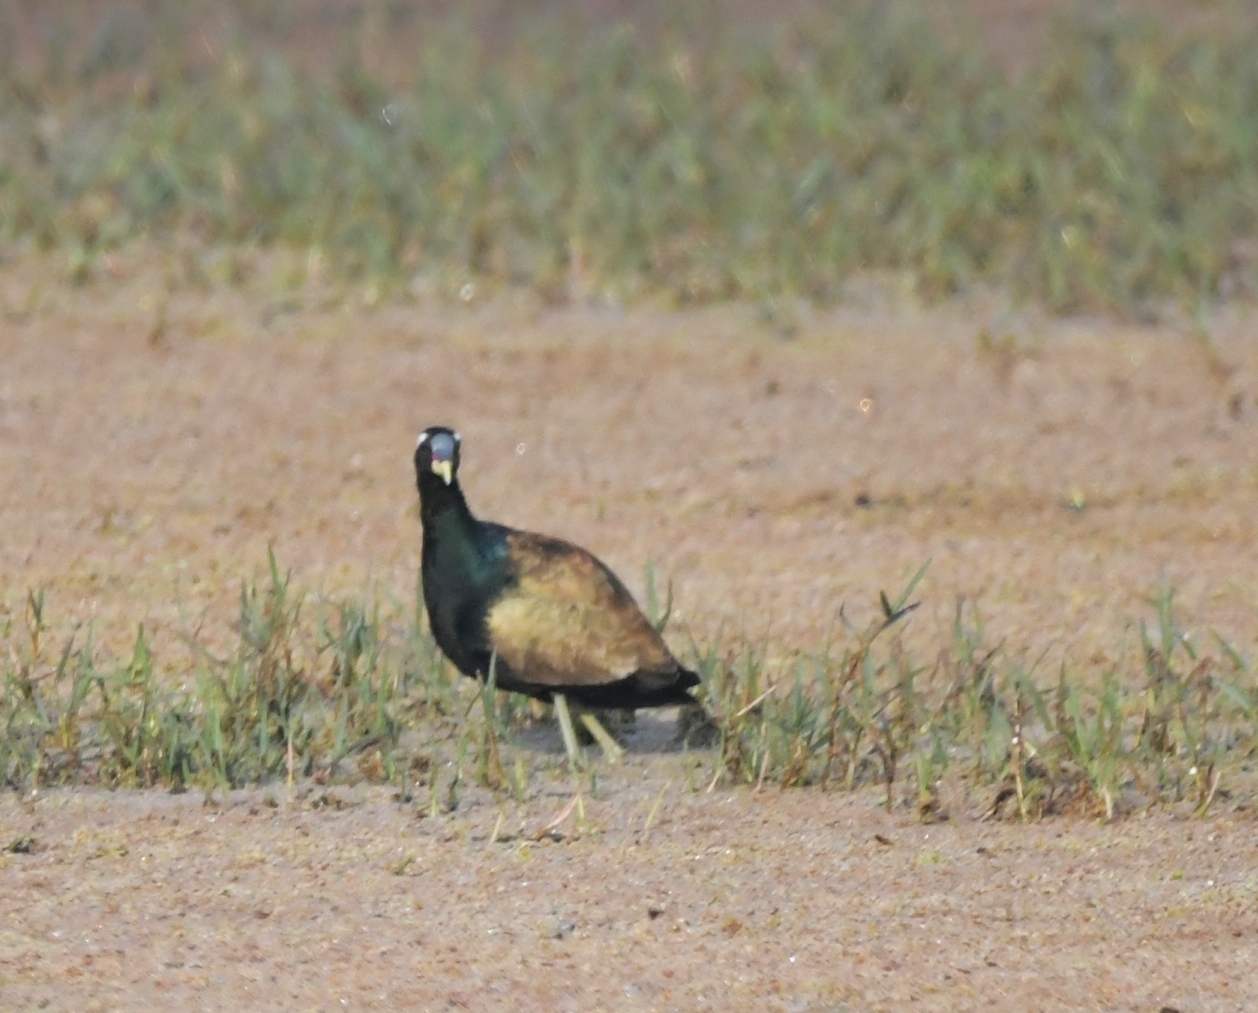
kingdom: Animalia
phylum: Chordata
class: Aves
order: Charadriiformes
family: Jacanidae
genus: Metopidius
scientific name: Metopidius indicus
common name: Bronze-winged jacana
